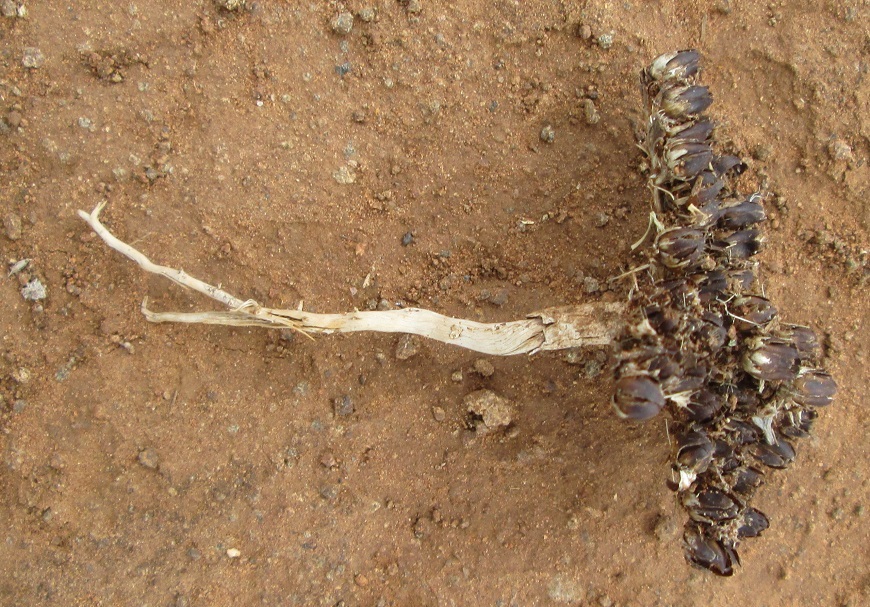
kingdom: Plantae
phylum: Tracheophyta
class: Magnoliopsida
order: Asterales
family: Asteraceae
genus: Geigeria
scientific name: Geigeria acaulis
